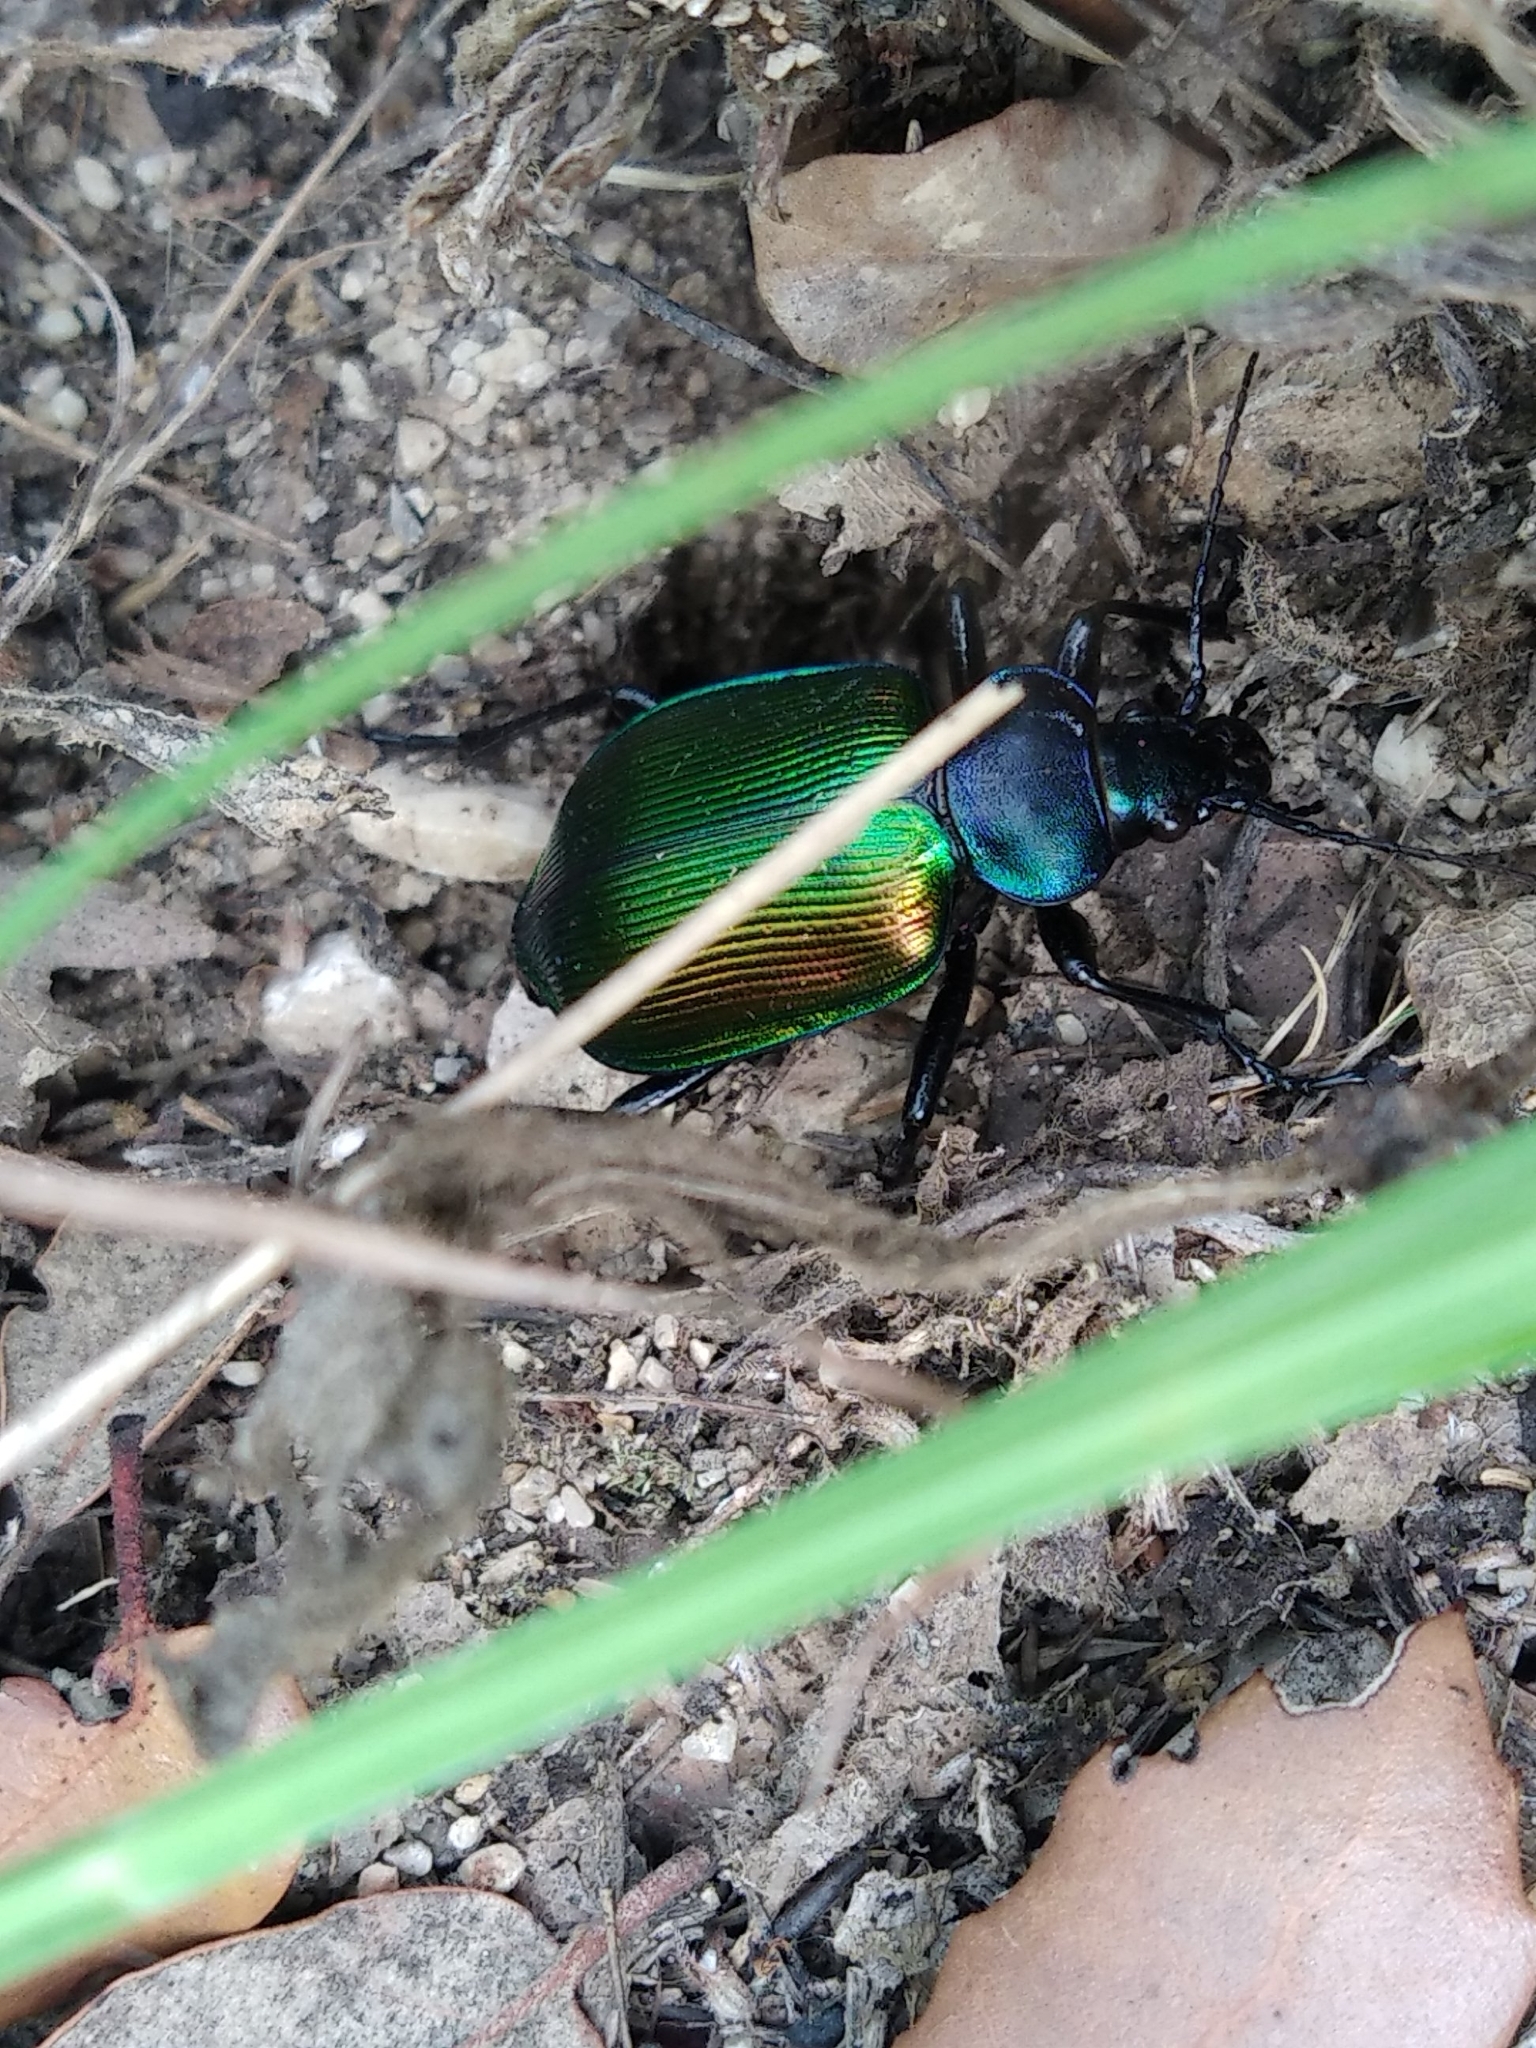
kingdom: Animalia
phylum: Arthropoda
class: Insecta
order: Coleoptera
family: Carabidae
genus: Calosoma
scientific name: Calosoma sycophanta
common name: Forest caterpillar hunter
